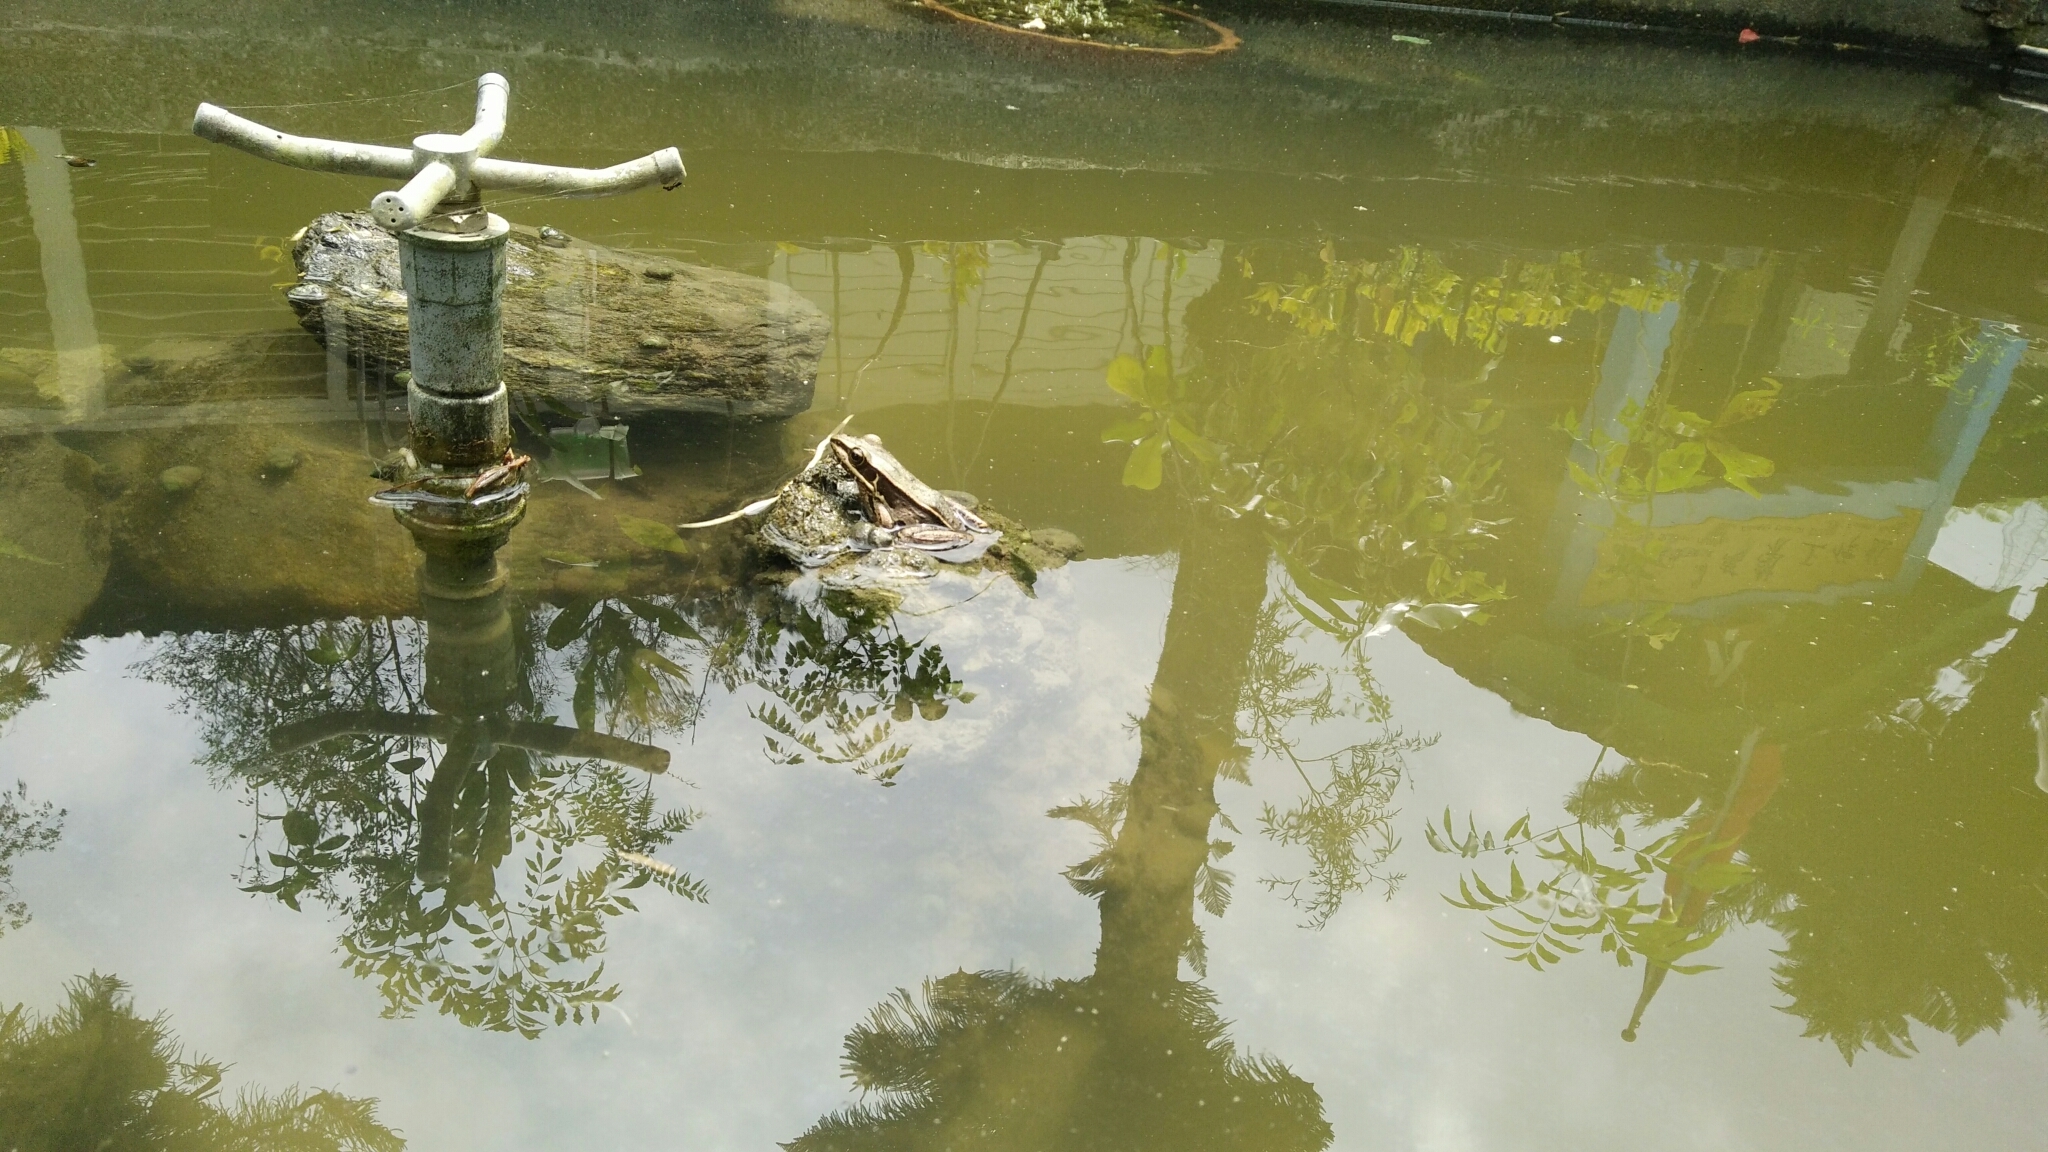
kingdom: Animalia
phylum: Chordata
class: Amphibia
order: Anura
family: Ranidae
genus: Sylvirana
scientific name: Sylvirana guentheri
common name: Guenther's amoy frog
